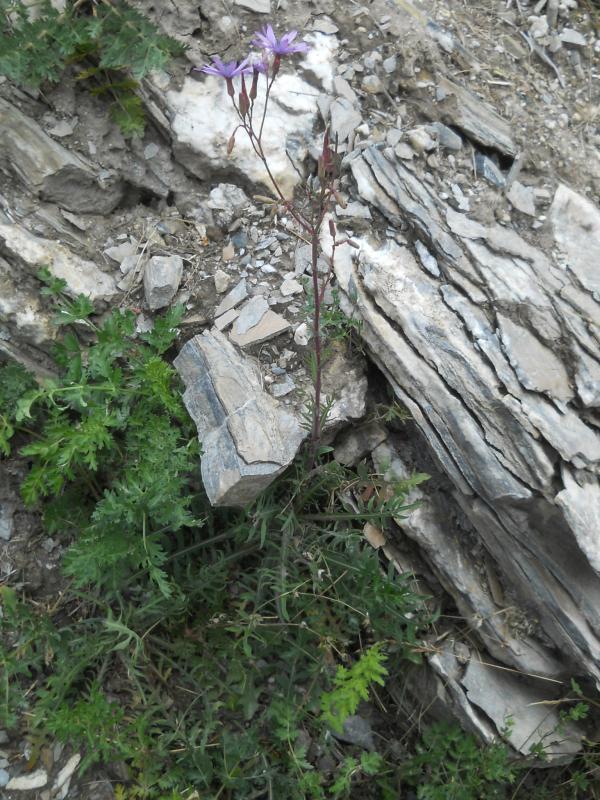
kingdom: Plantae
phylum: Tracheophyta
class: Magnoliopsida
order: Asterales
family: Asteraceae
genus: Lactuca
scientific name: Lactuca perennis
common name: Mountain lettuce
